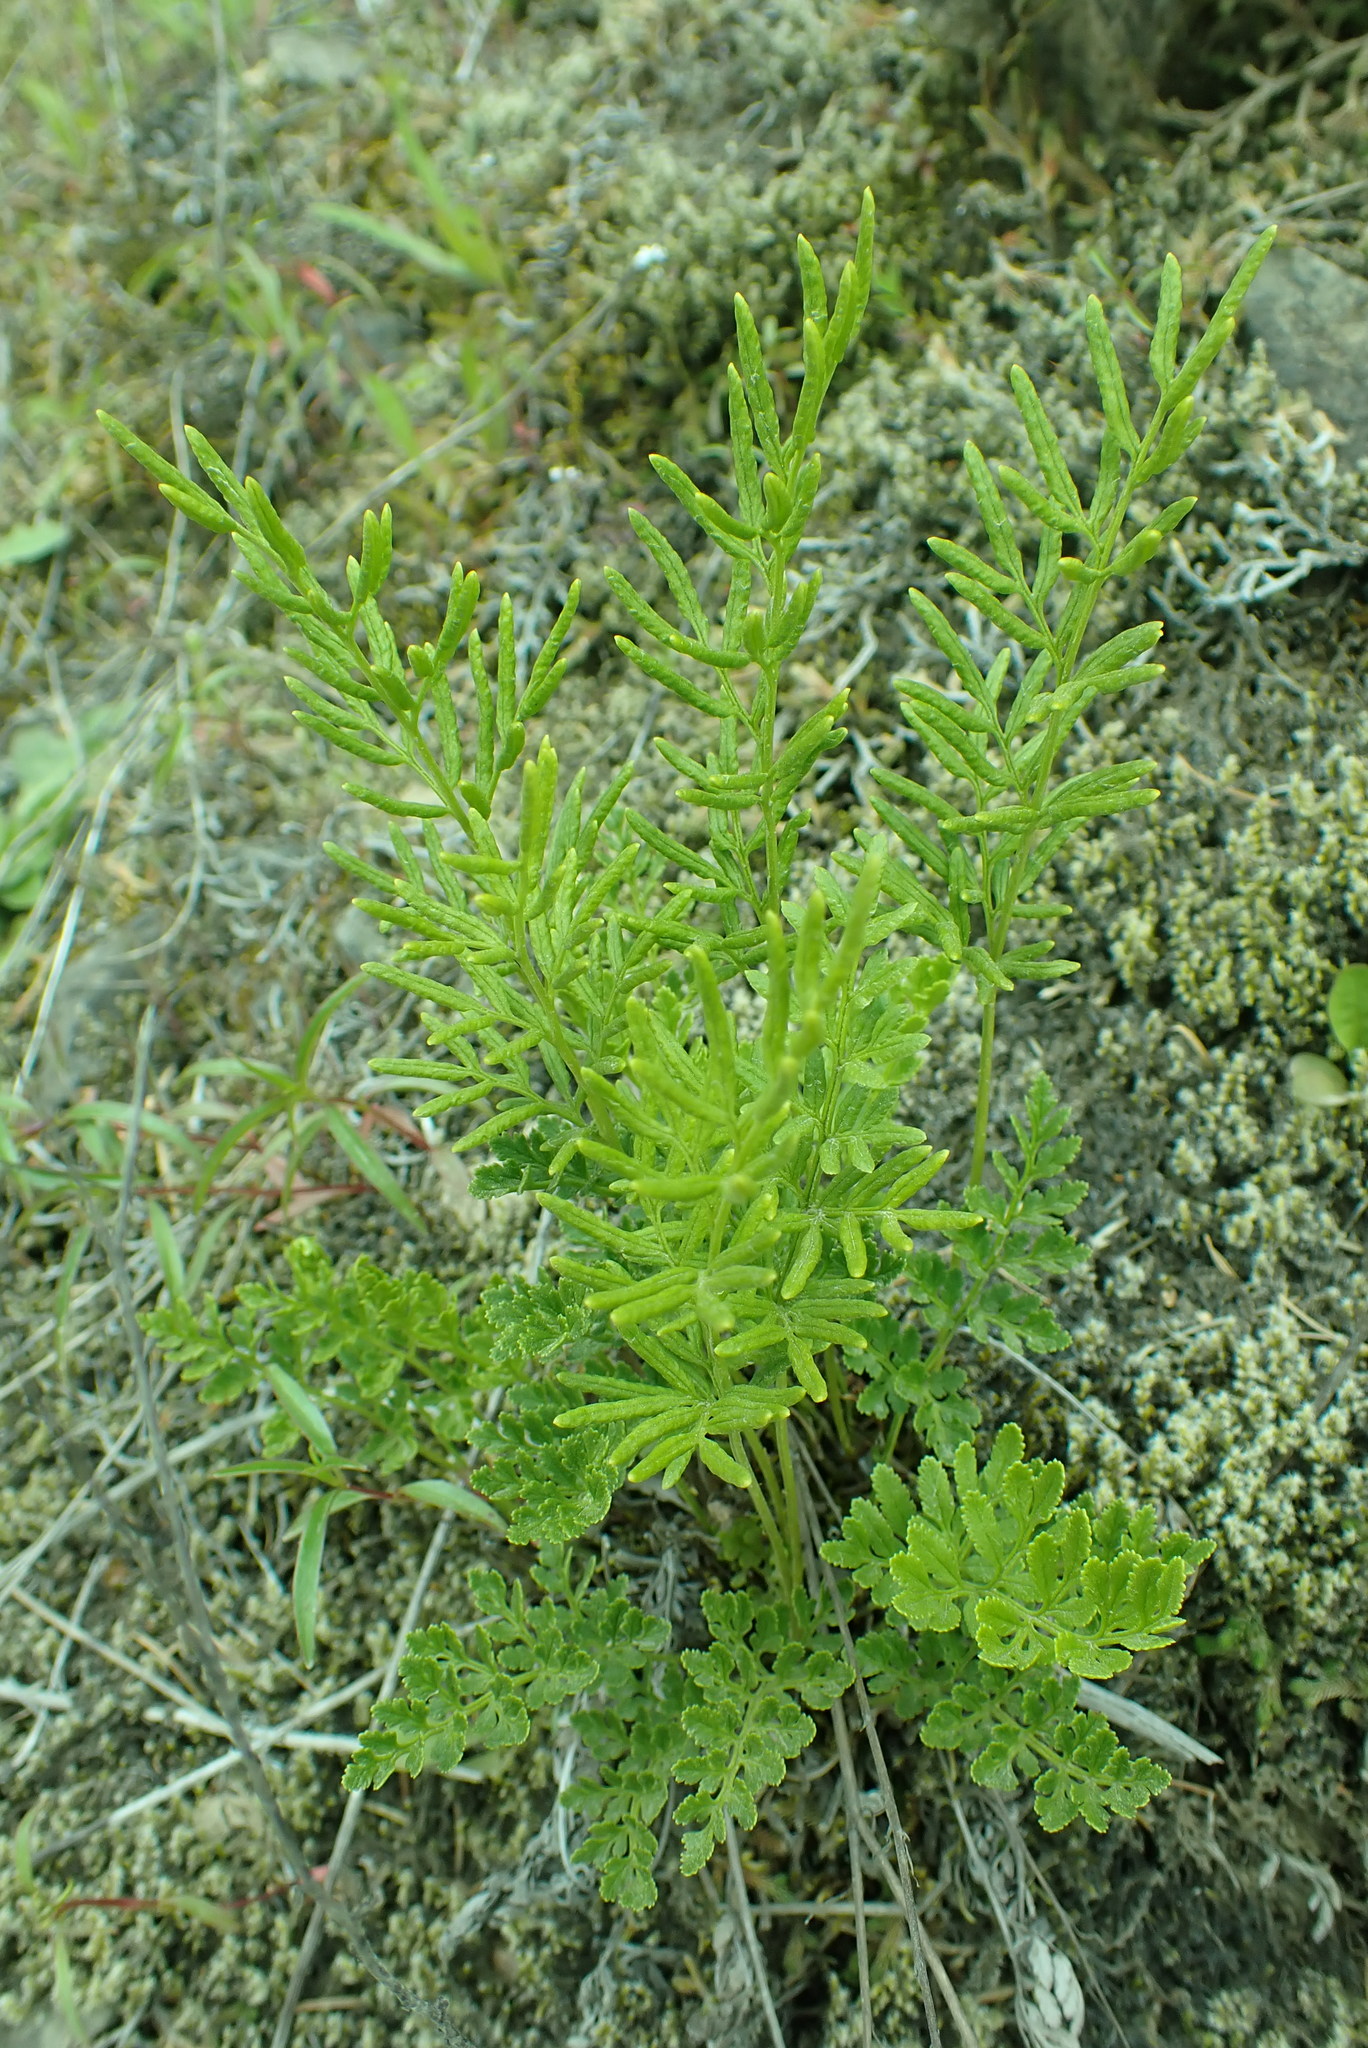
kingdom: Plantae
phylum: Tracheophyta
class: Polypodiopsida
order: Polypodiales
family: Pteridaceae
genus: Cryptogramma
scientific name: Cryptogramma acrostichoides
